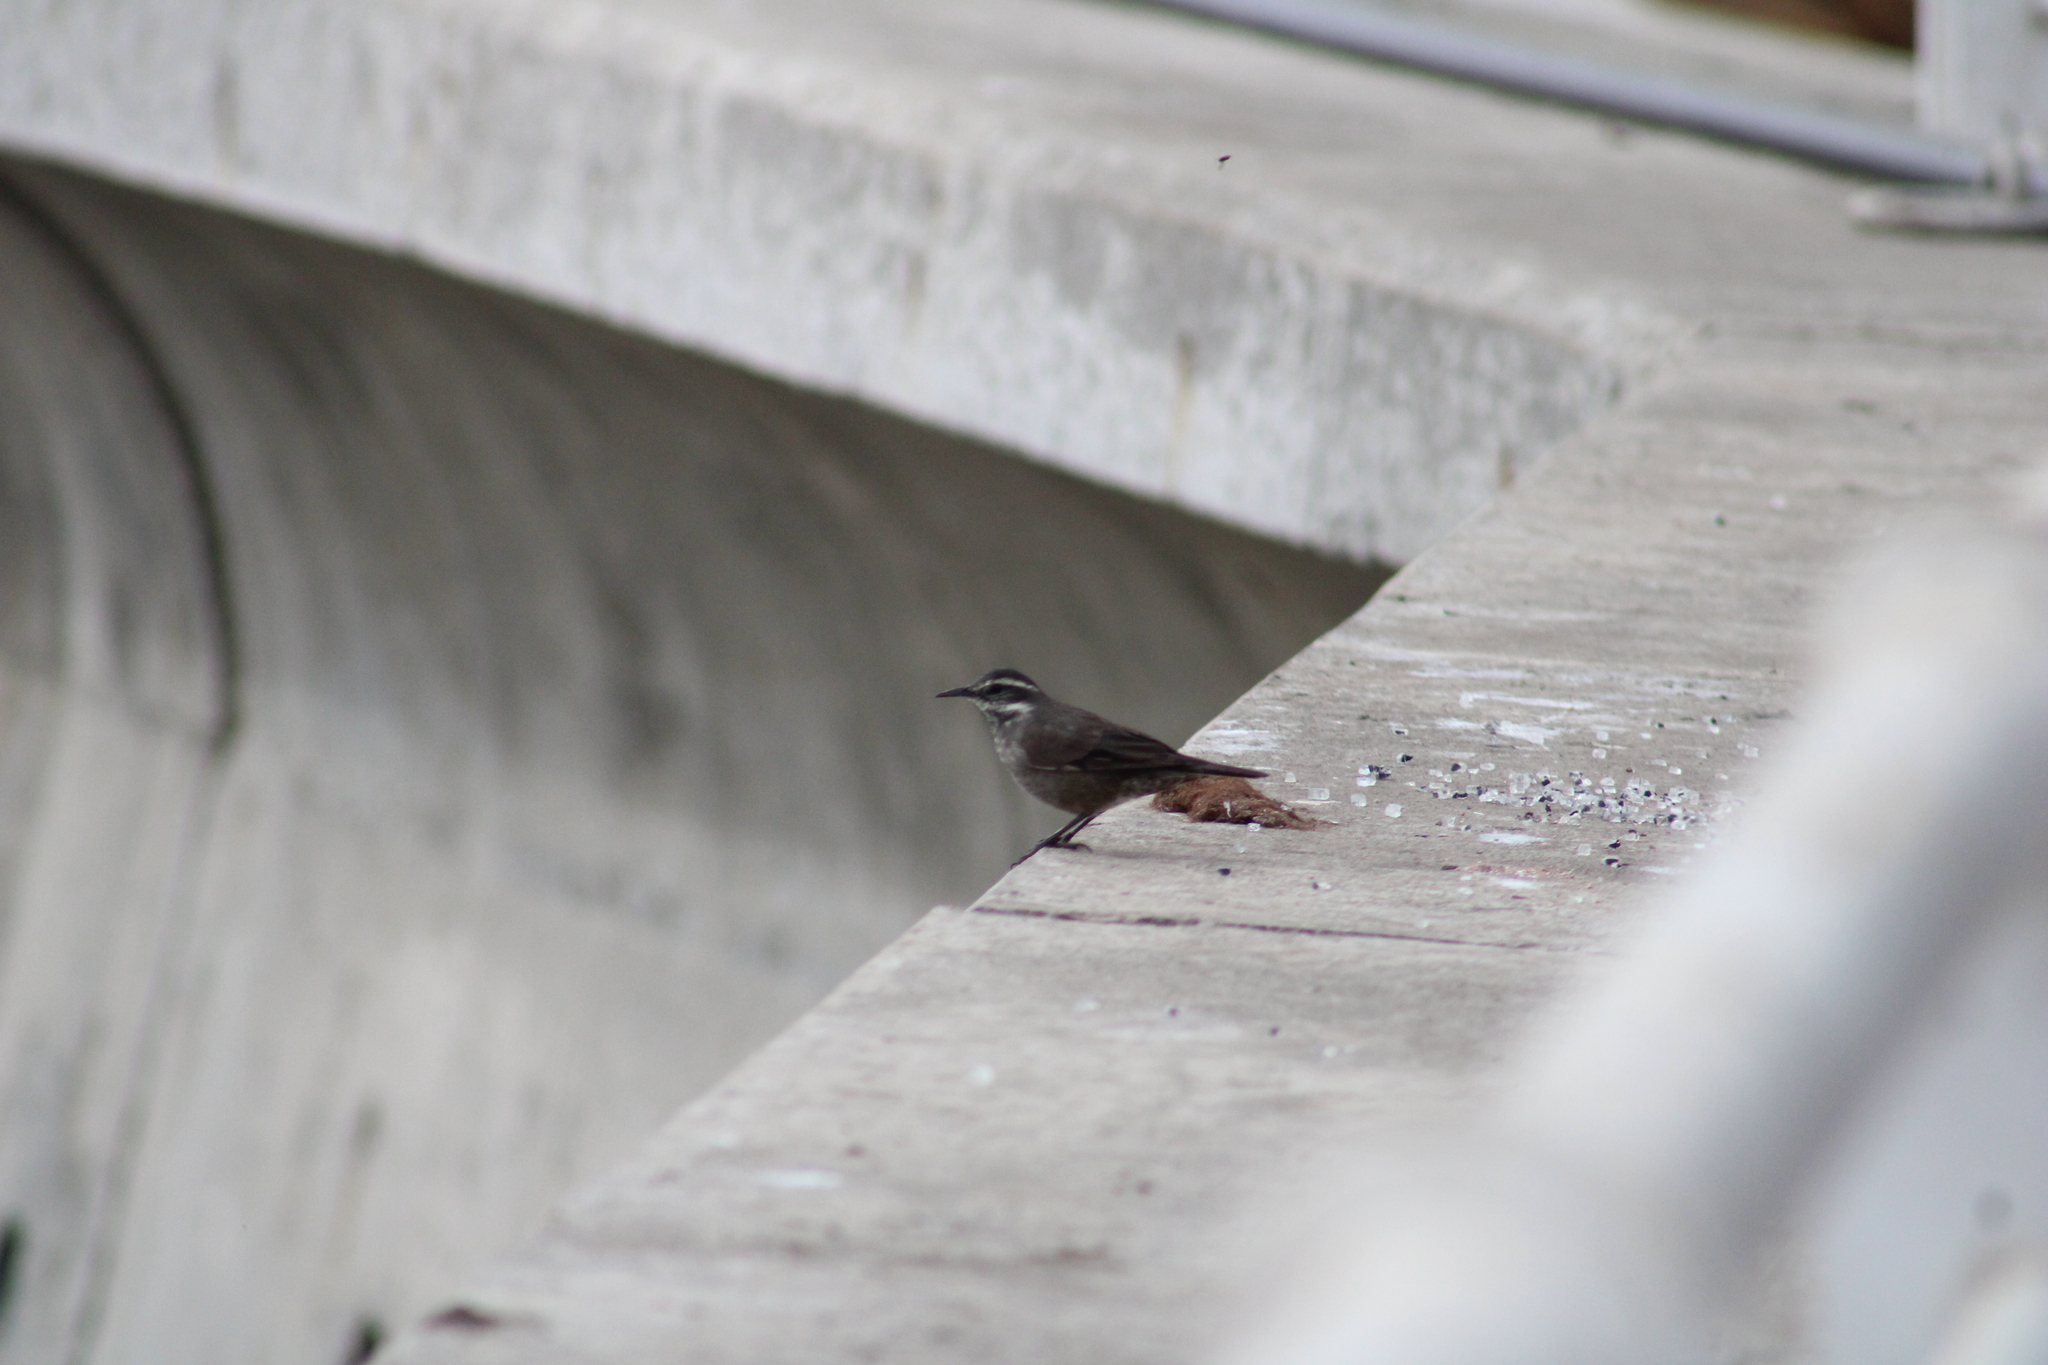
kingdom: Animalia
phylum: Chordata
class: Aves
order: Passeriformes
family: Furnariidae
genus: Cinclodes
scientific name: Cinclodes patagonicus
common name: Dark-bellied cinclodes
